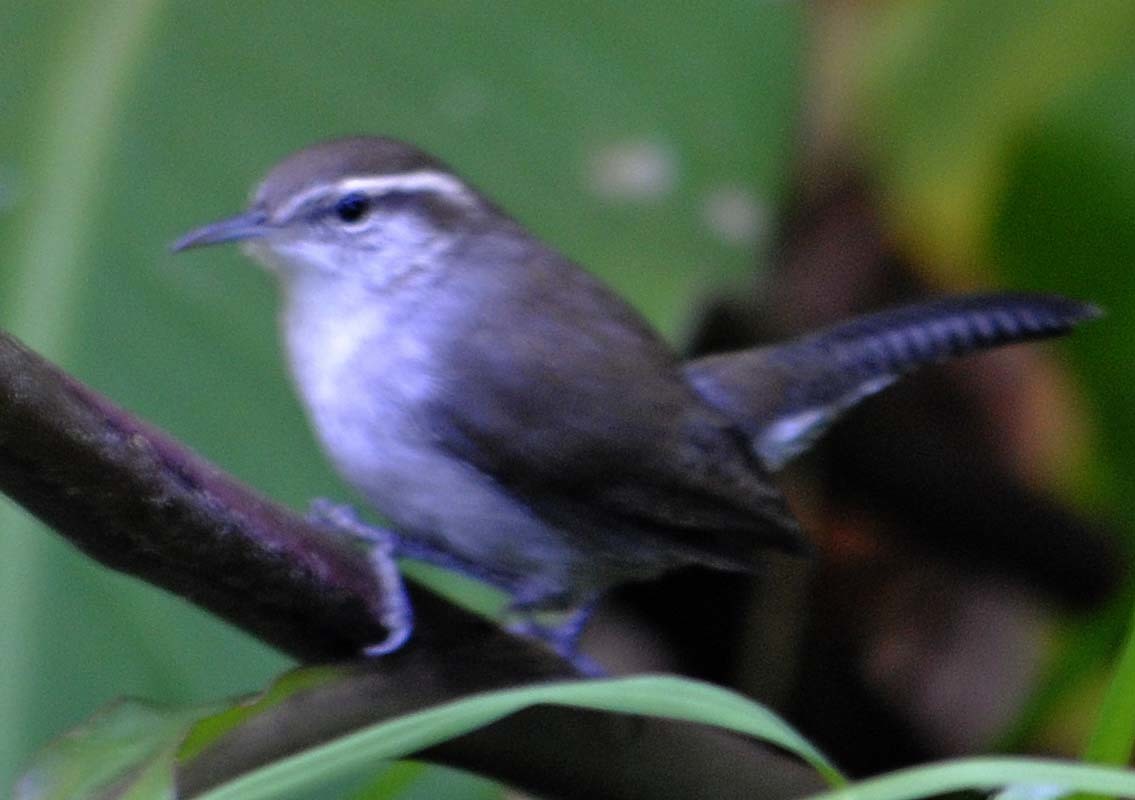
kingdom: Animalia
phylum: Chordata
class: Aves
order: Passeriformes
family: Troglodytidae
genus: Thryomanes
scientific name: Thryomanes bewickii
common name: Bewick's wren
